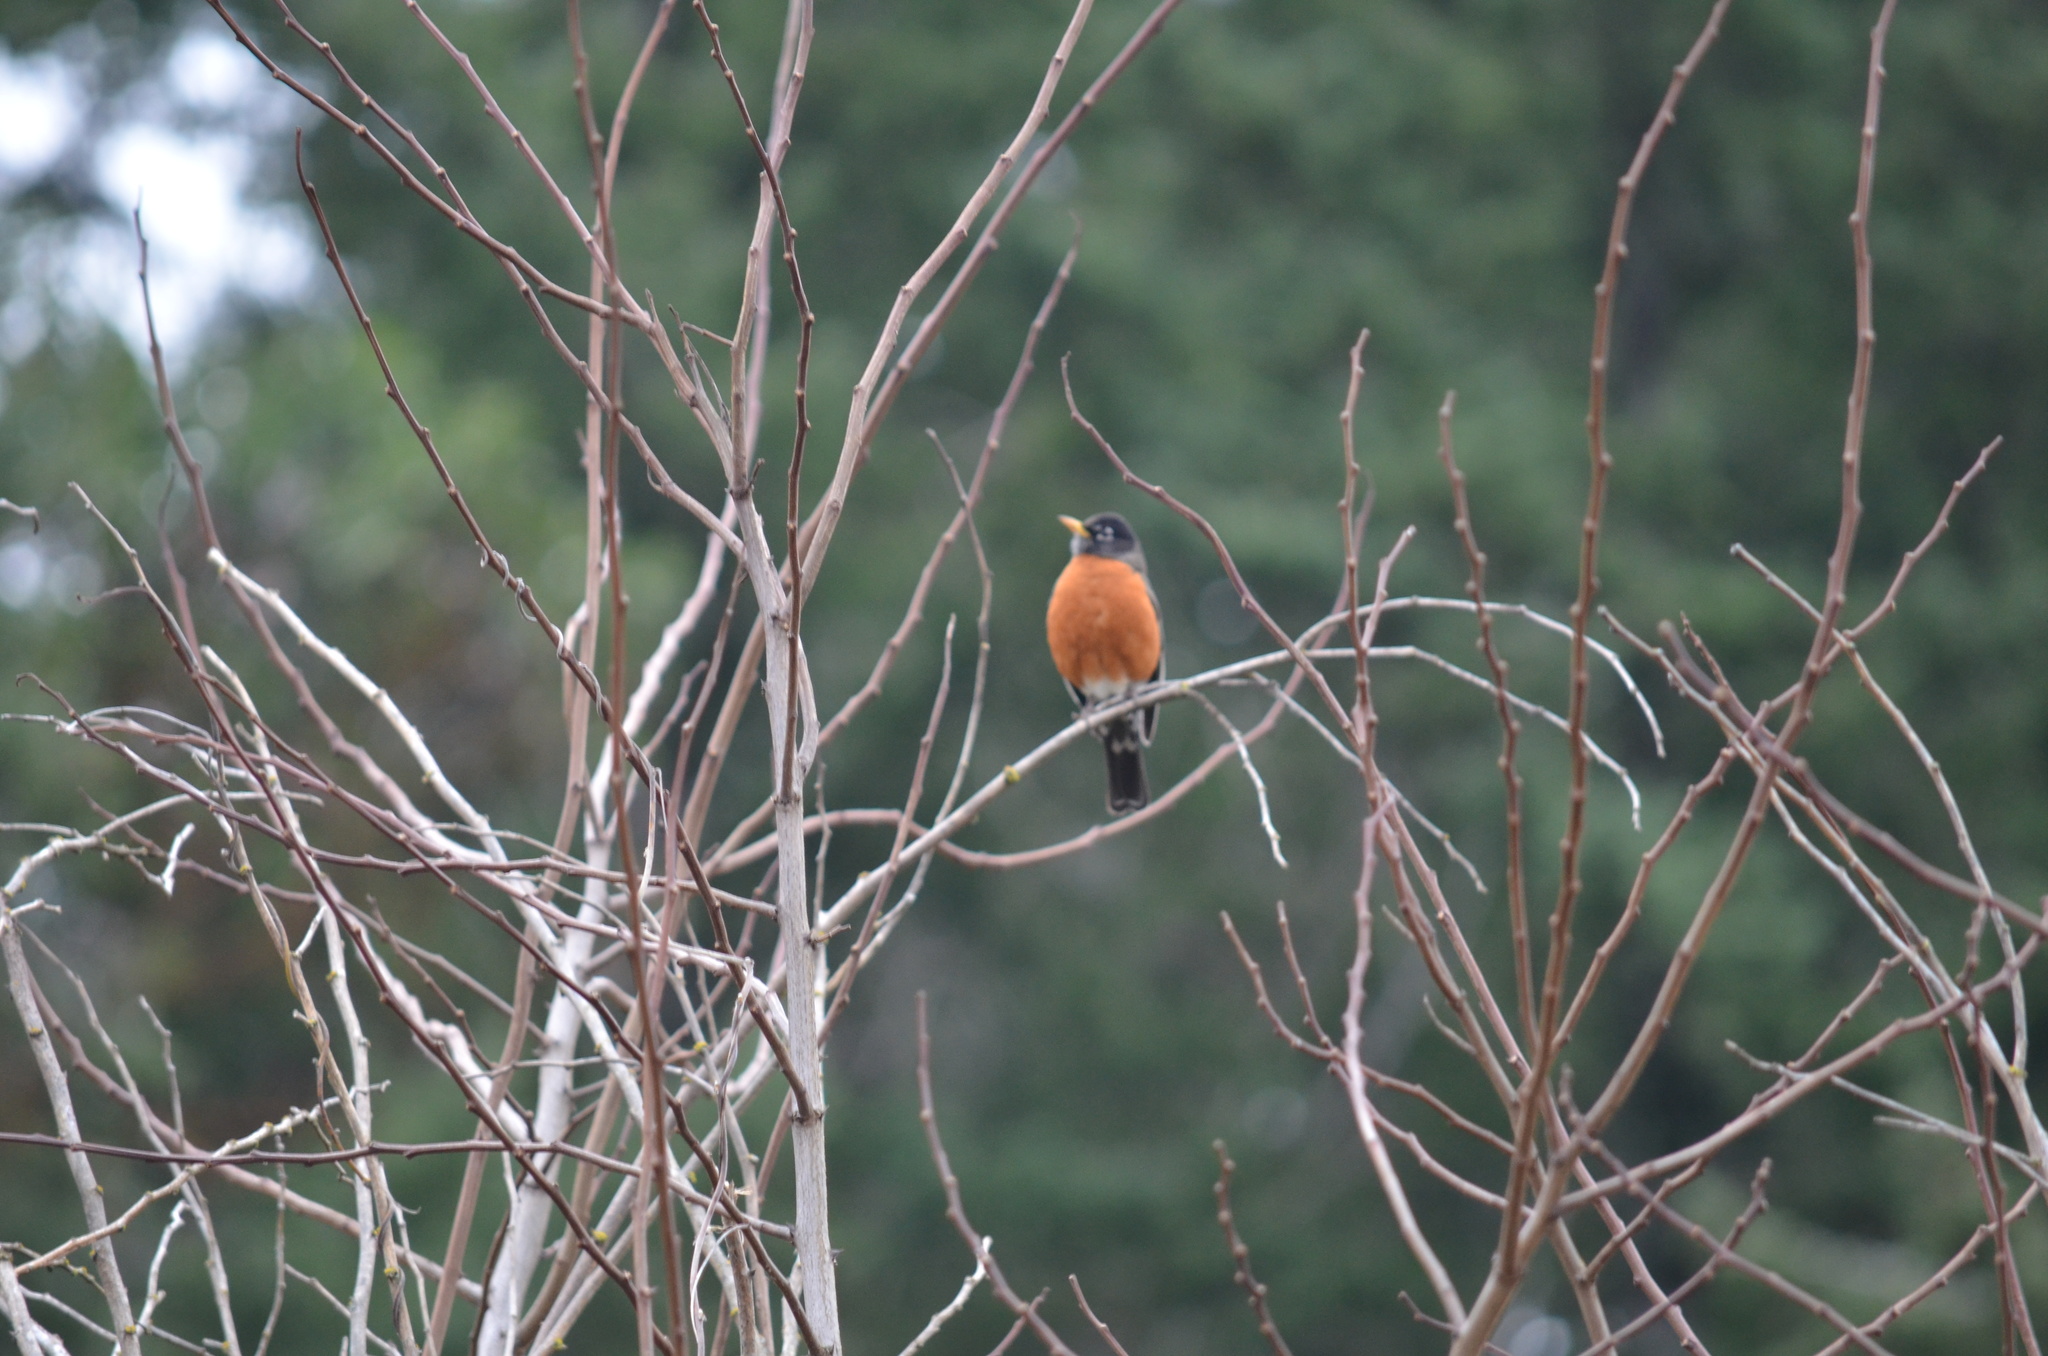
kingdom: Animalia
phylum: Chordata
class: Aves
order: Passeriformes
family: Turdidae
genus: Turdus
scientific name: Turdus migratorius
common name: American robin
